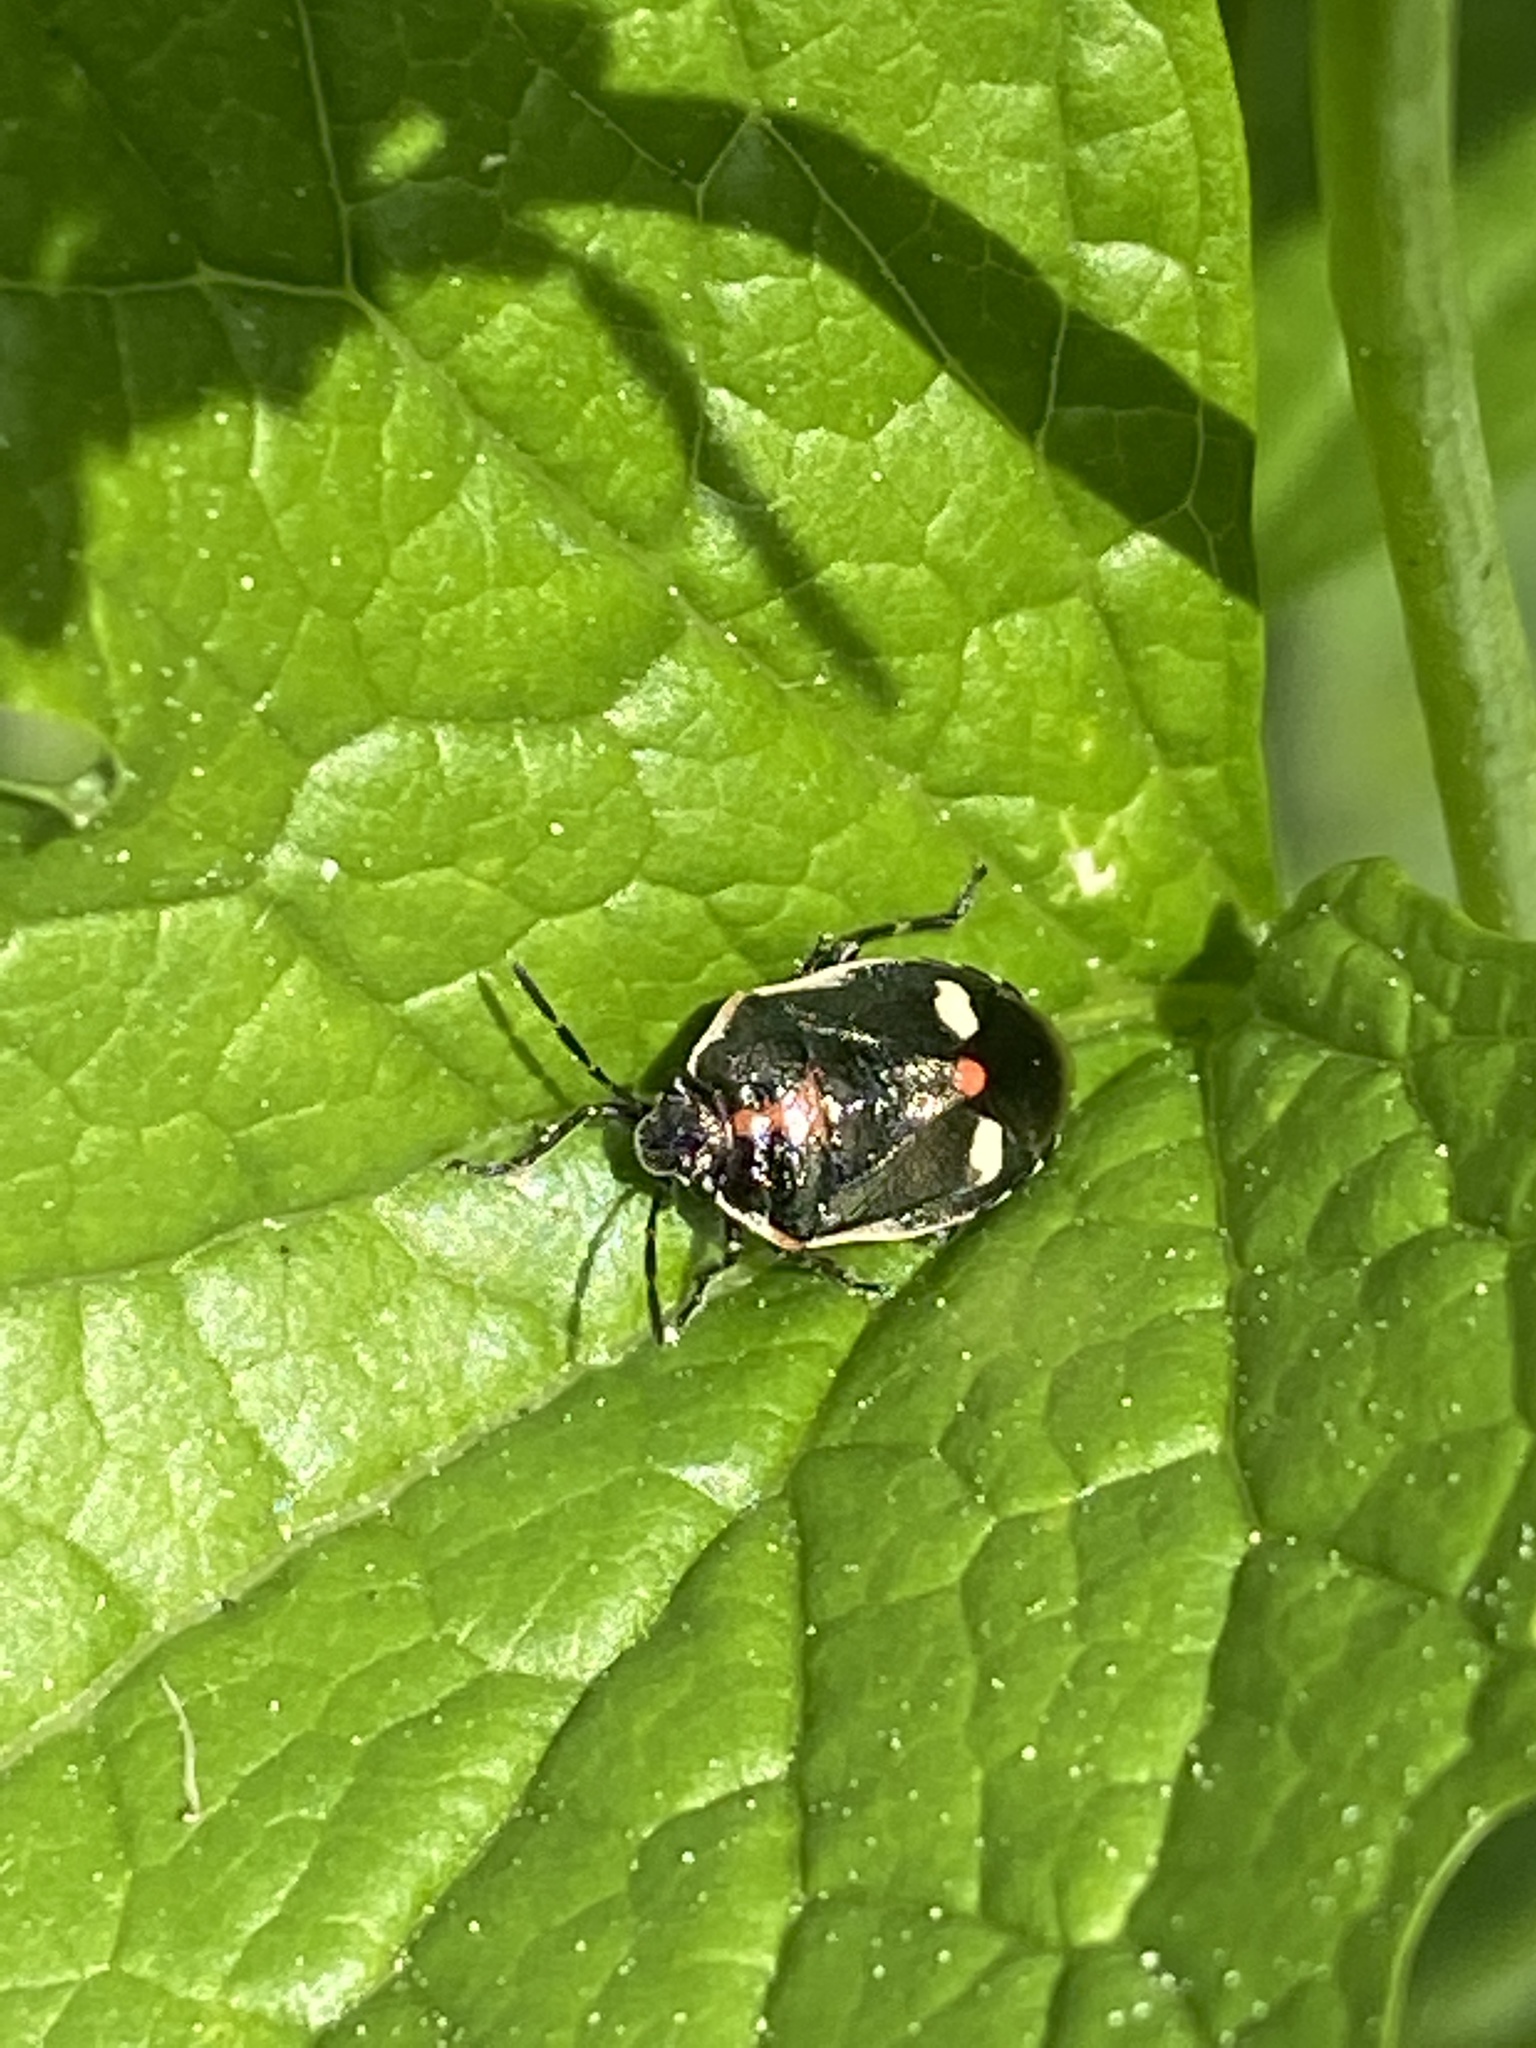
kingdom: Animalia
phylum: Arthropoda
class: Insecta
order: Hemiptera
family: Pentatomidae
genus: Eurydema
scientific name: Eurydema oleracea
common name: Cabbage bug
